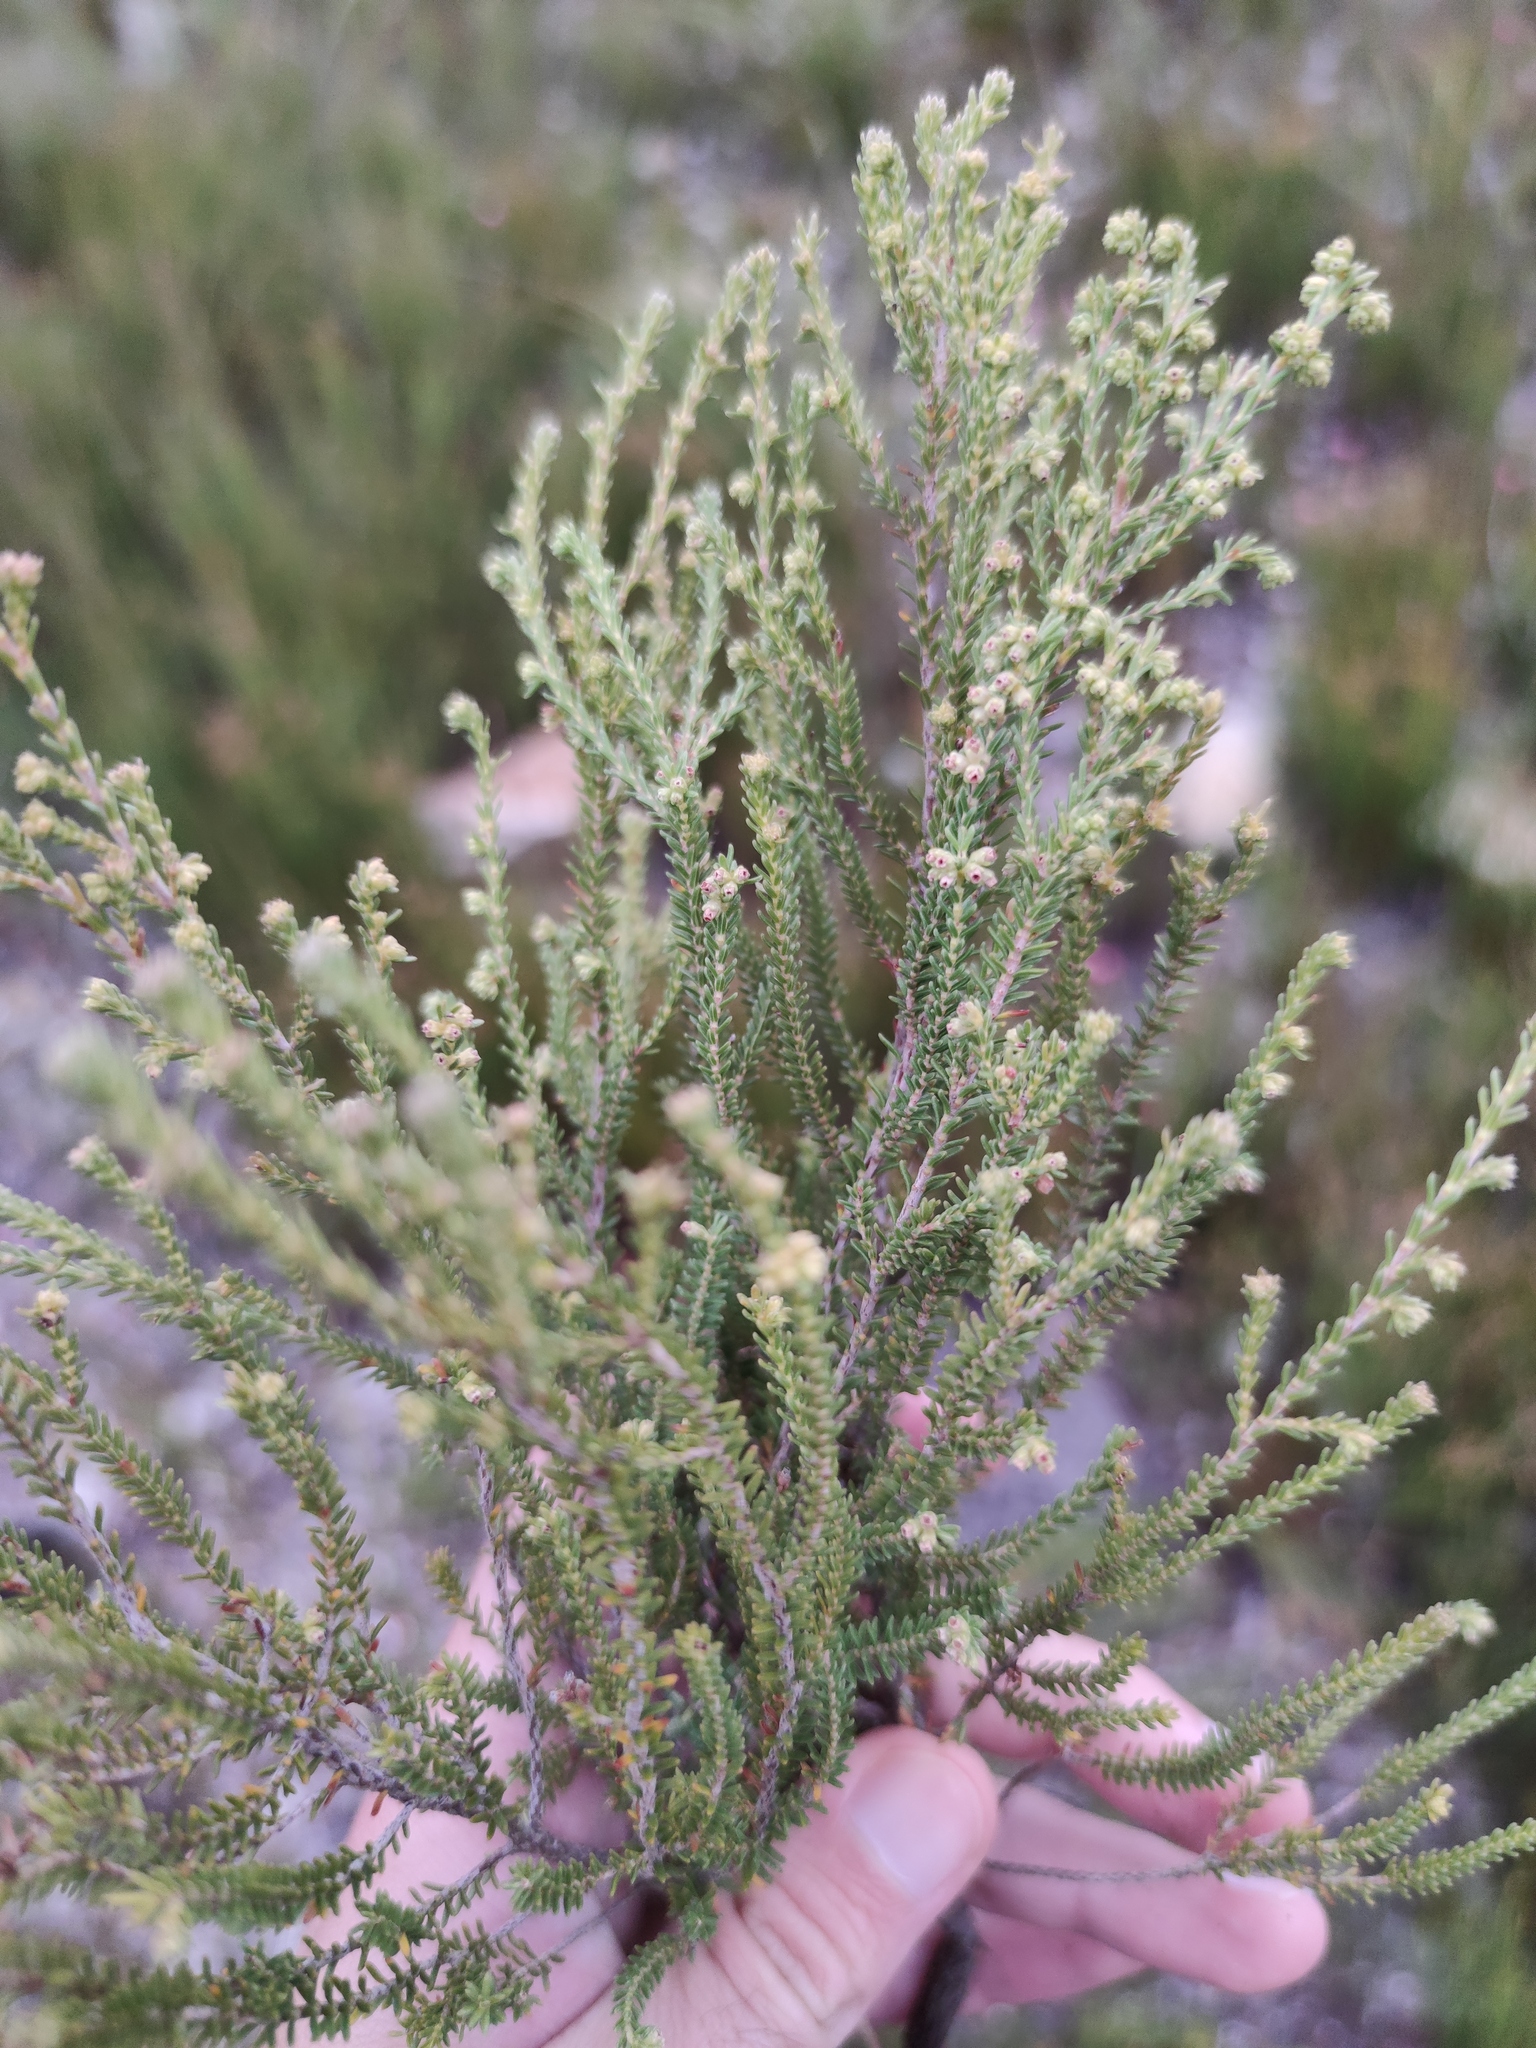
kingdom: Plantae
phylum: Tracheophyta
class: Magnoliopsida
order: Ericales
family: Ericaceae
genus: Erica
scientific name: Erica serrata
